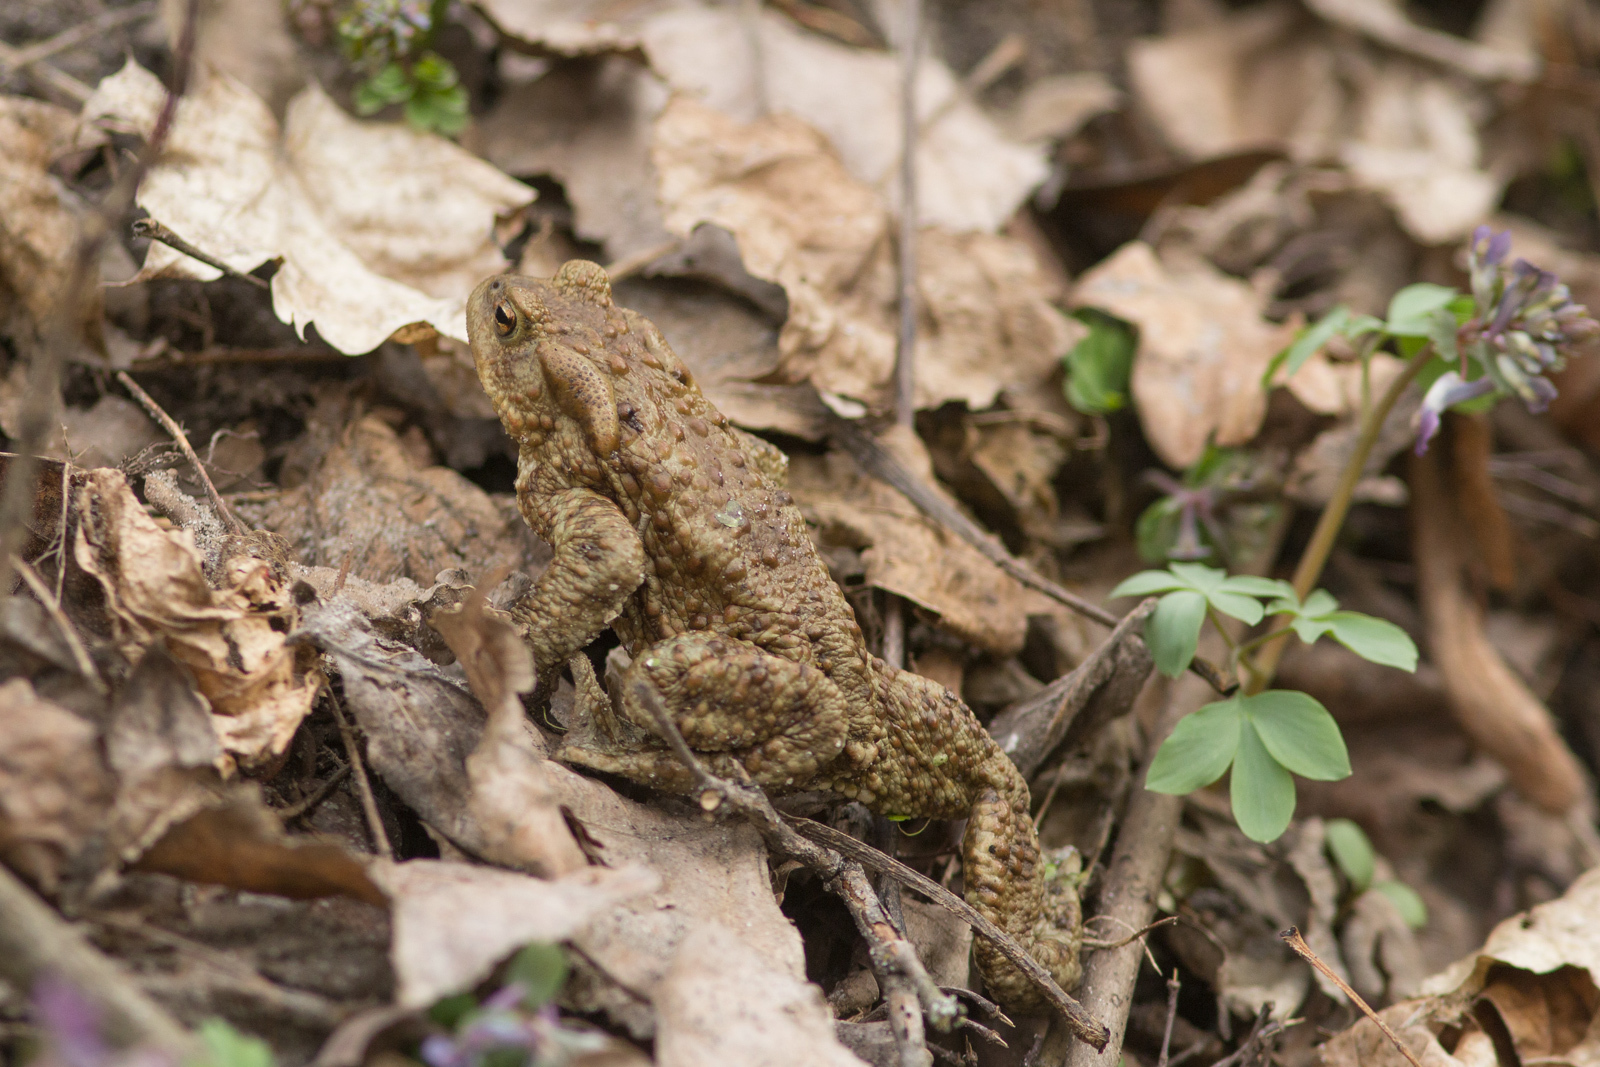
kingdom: Animalia
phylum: Chordata
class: Amphibia
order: Anura
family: Bufonidae
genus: Bufo
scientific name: Bufo bufo
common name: Common toad
